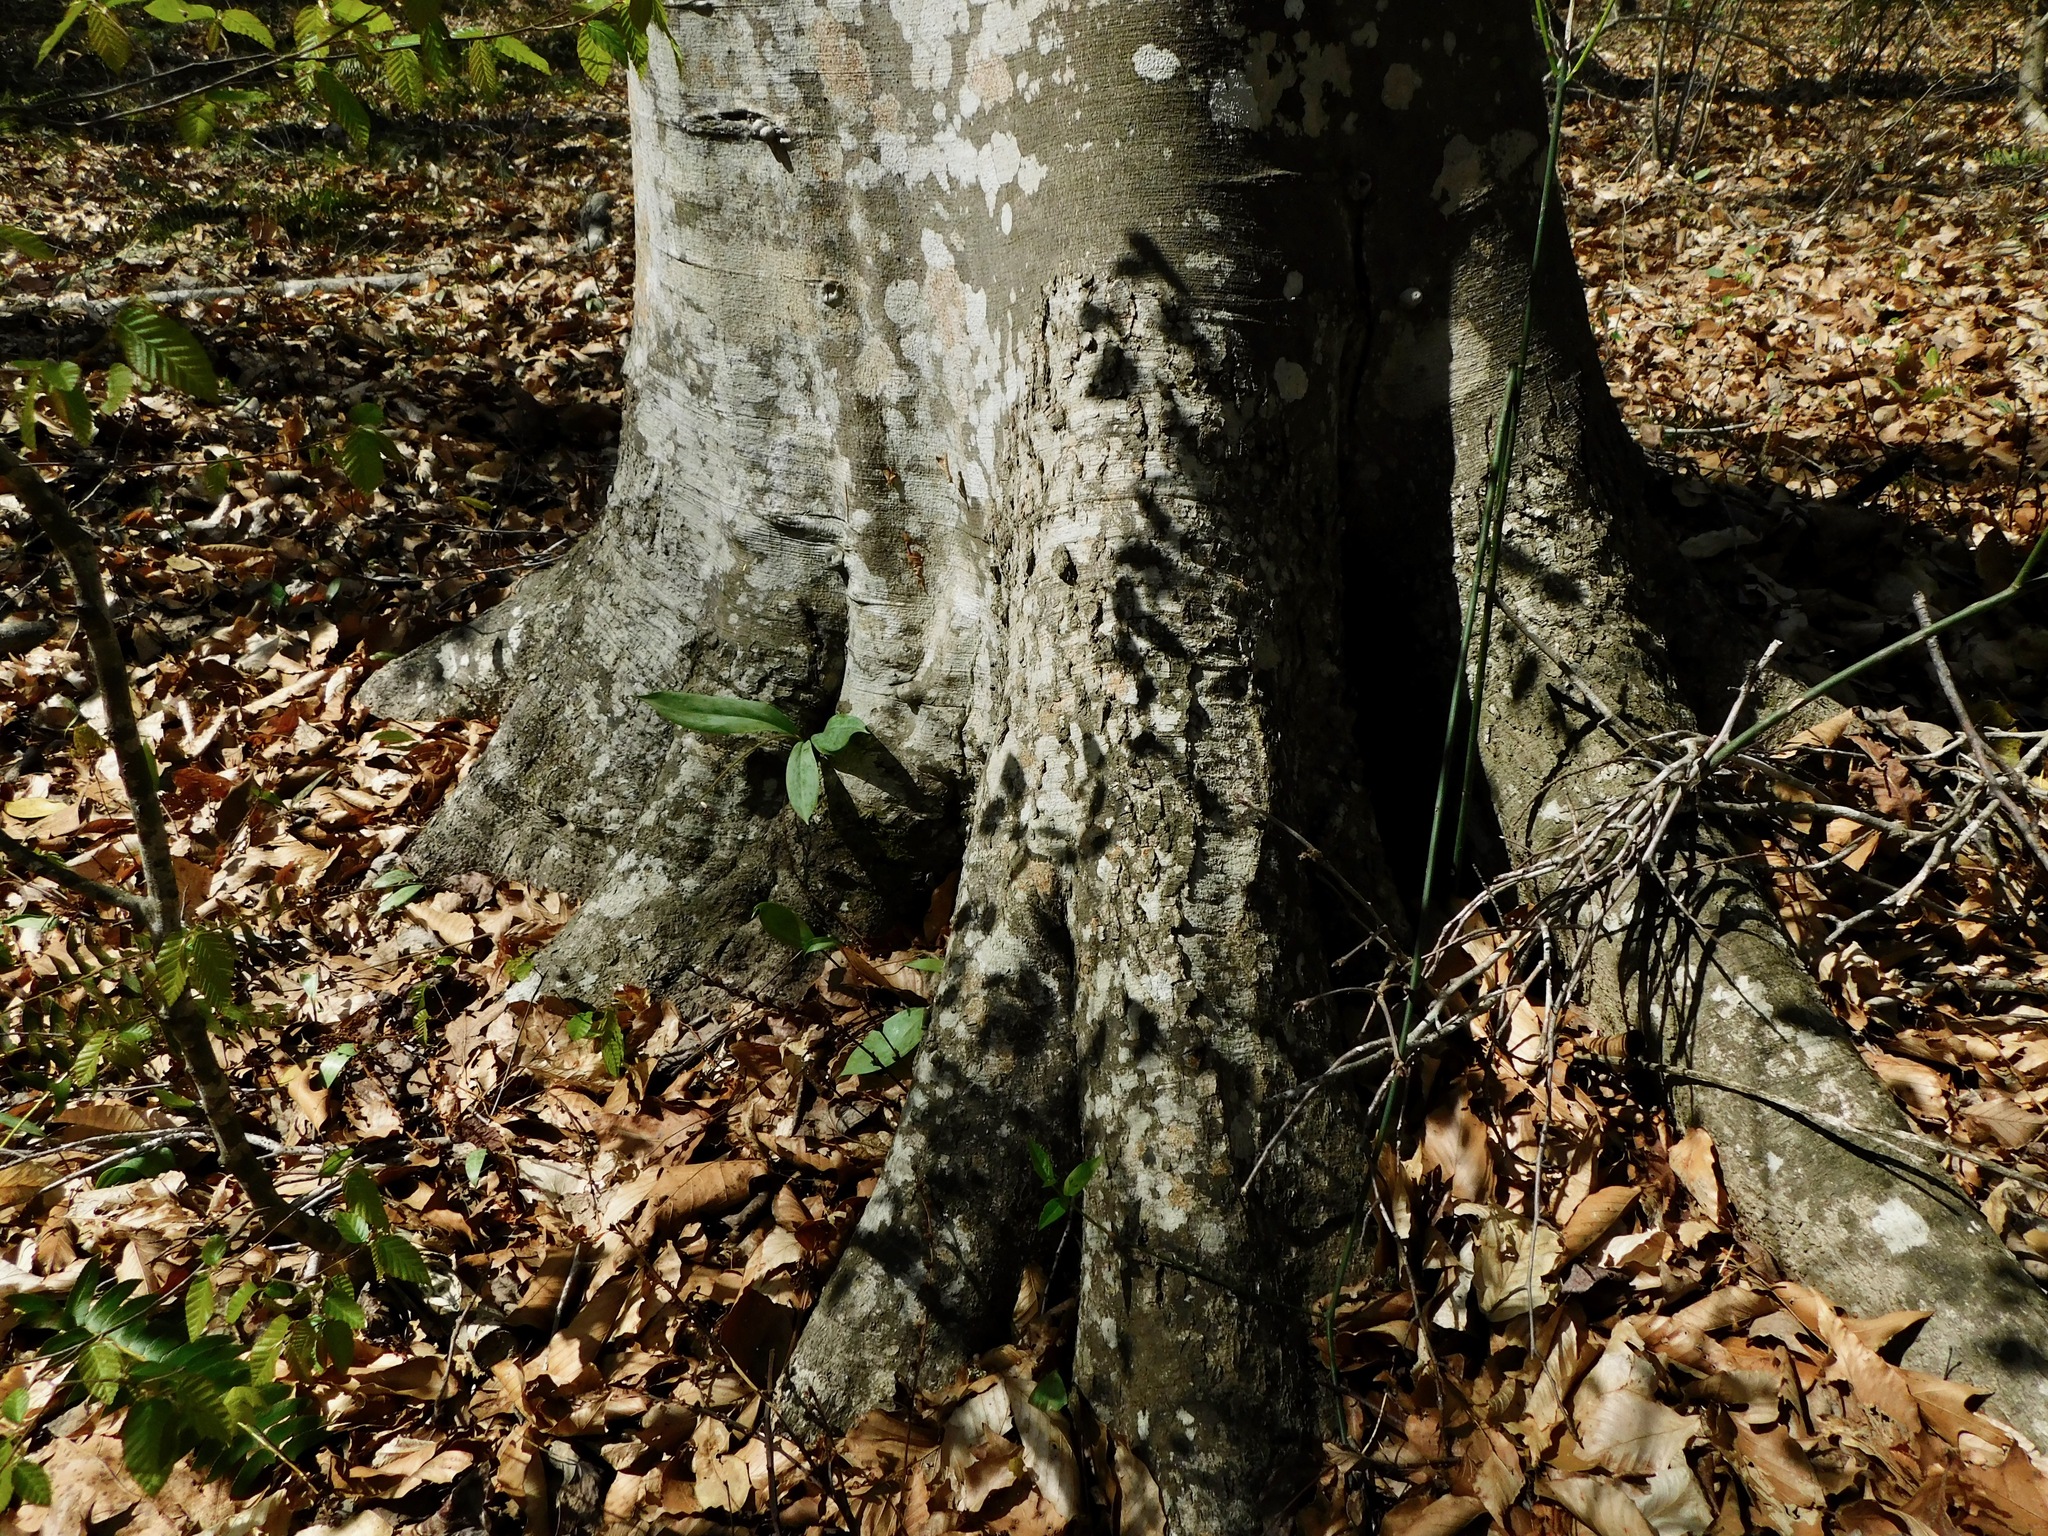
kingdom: Plantae
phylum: Tracheophyta
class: Liliopsida
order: Liliales
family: Liliaceae
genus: Erythronium
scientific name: Erythronium umbilicatum
